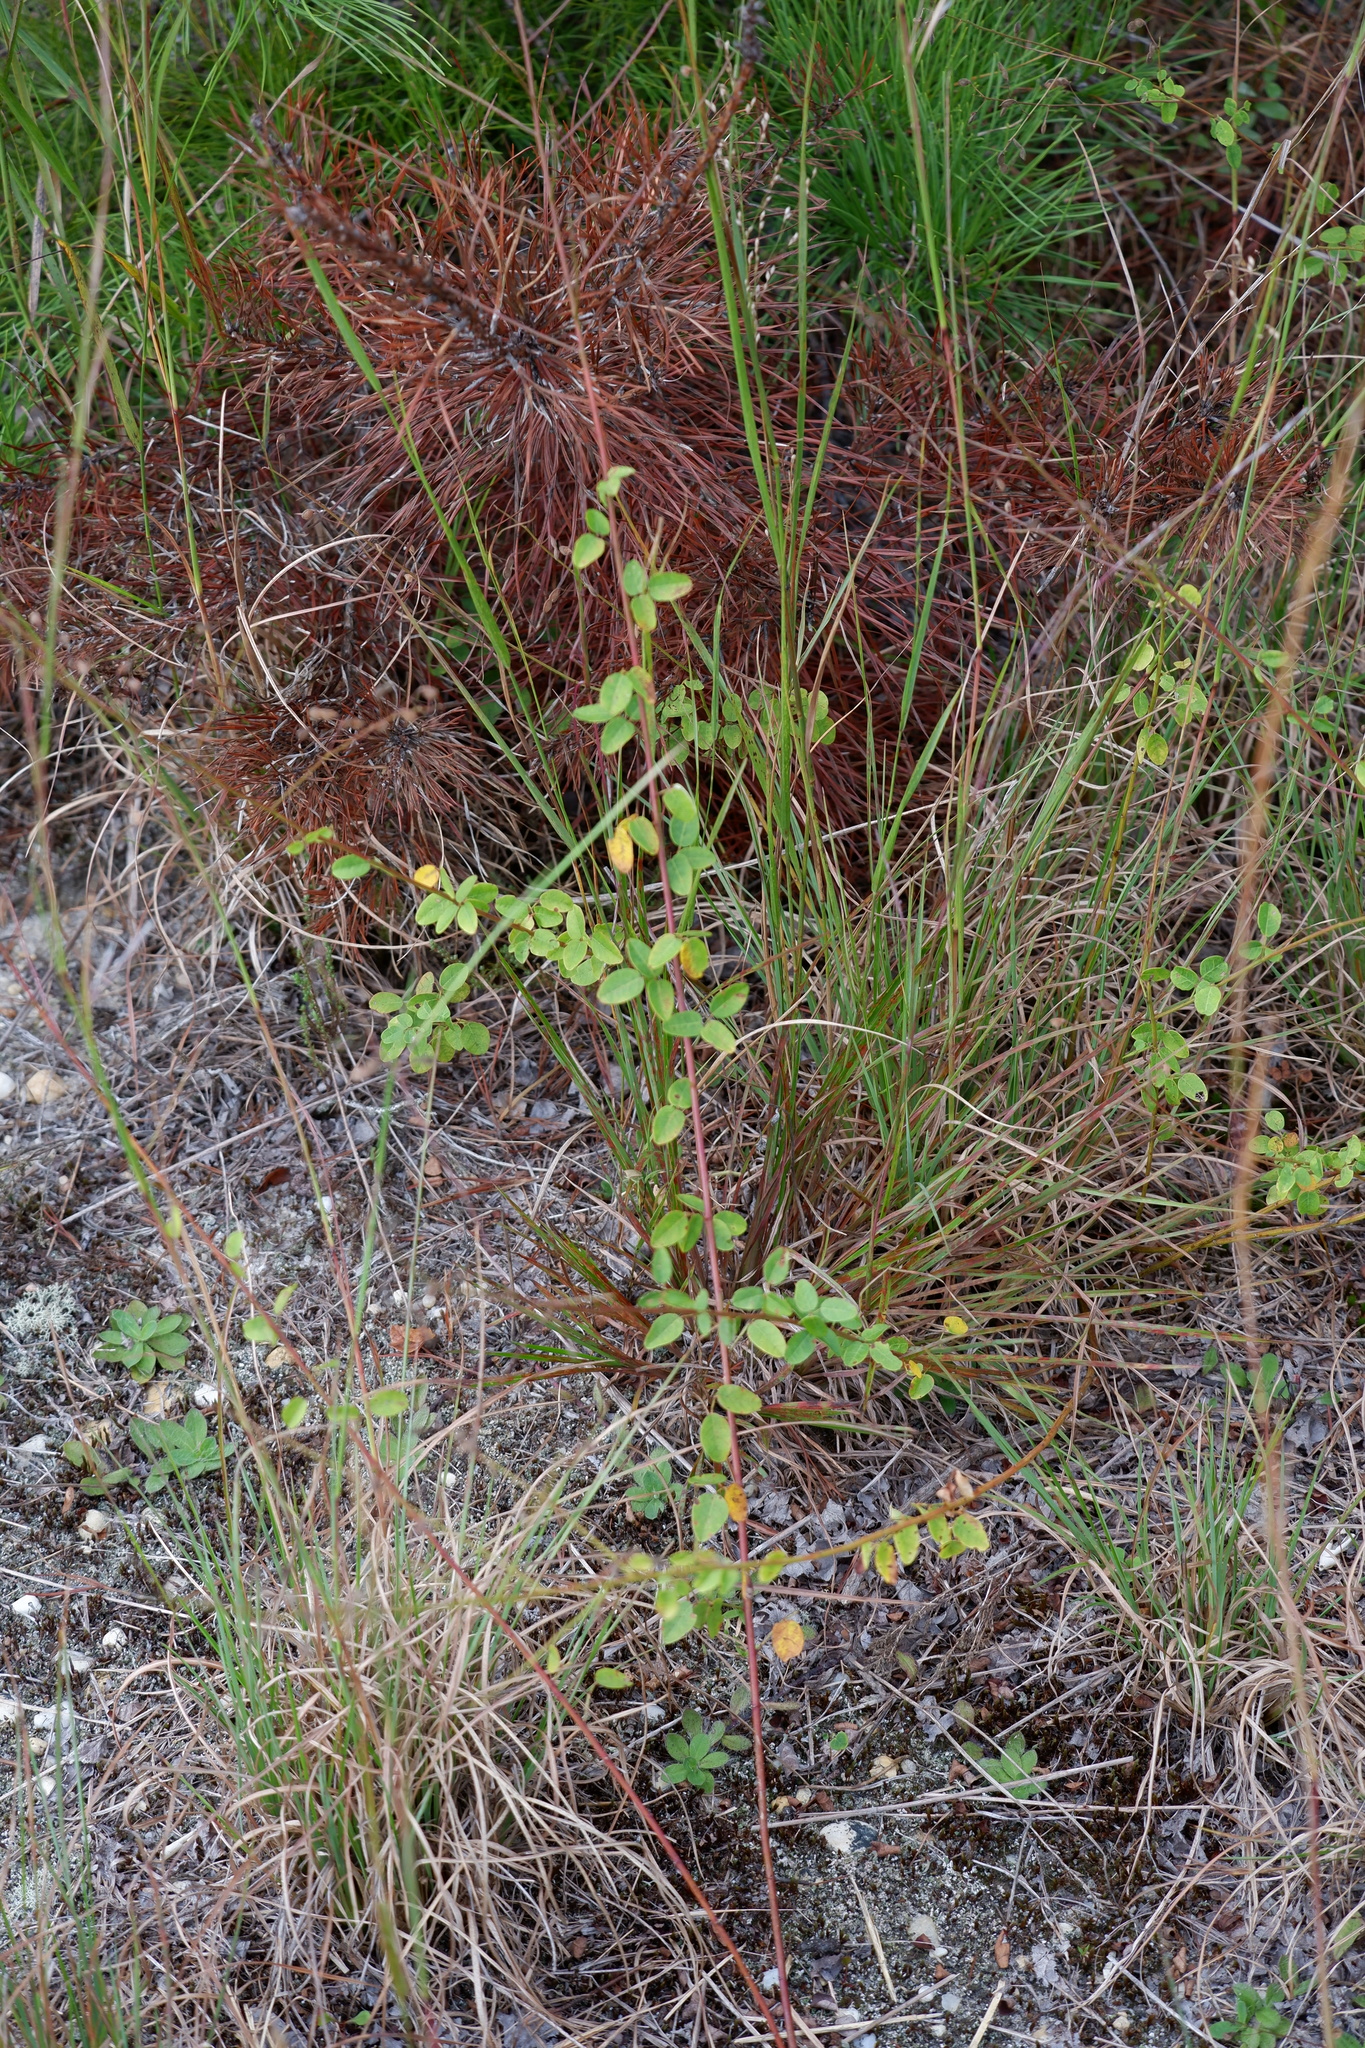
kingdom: Plantae
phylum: Tracheophyta
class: Magnoliopsida
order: Fabales
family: Fabaceae
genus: Desmodium
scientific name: Desmodium ciliare
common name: Hairy small-leaf ticktrefoil
